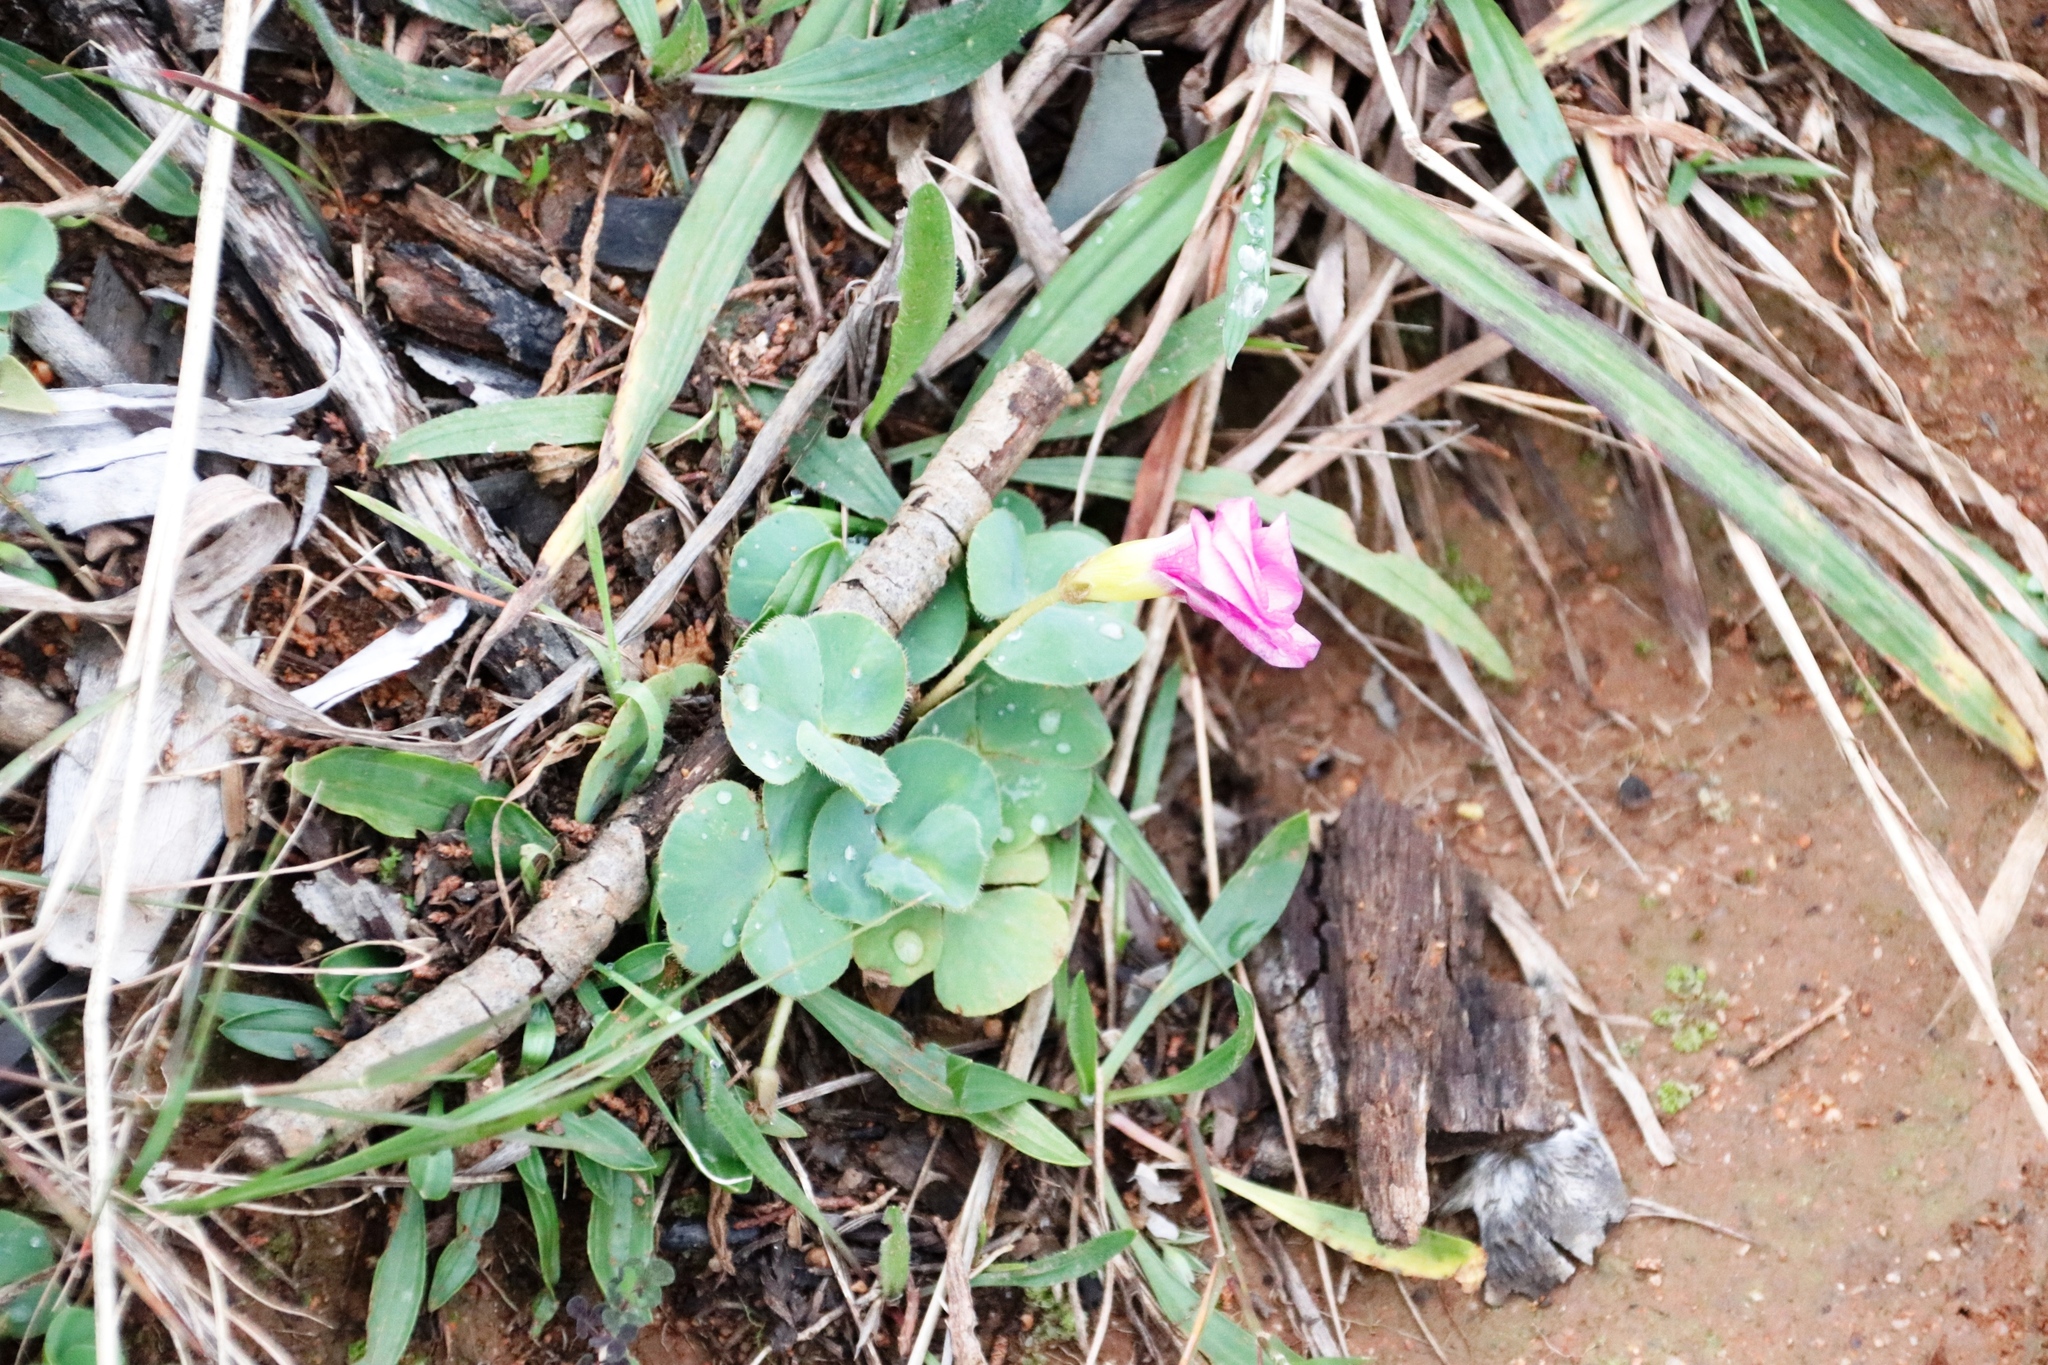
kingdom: Plantae
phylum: Tracheophyta
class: Magnoliopsida
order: Oxalidales
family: Oxalidaceae
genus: Oxalis
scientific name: Oxalis purpurea
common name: Purple woodsorrel
